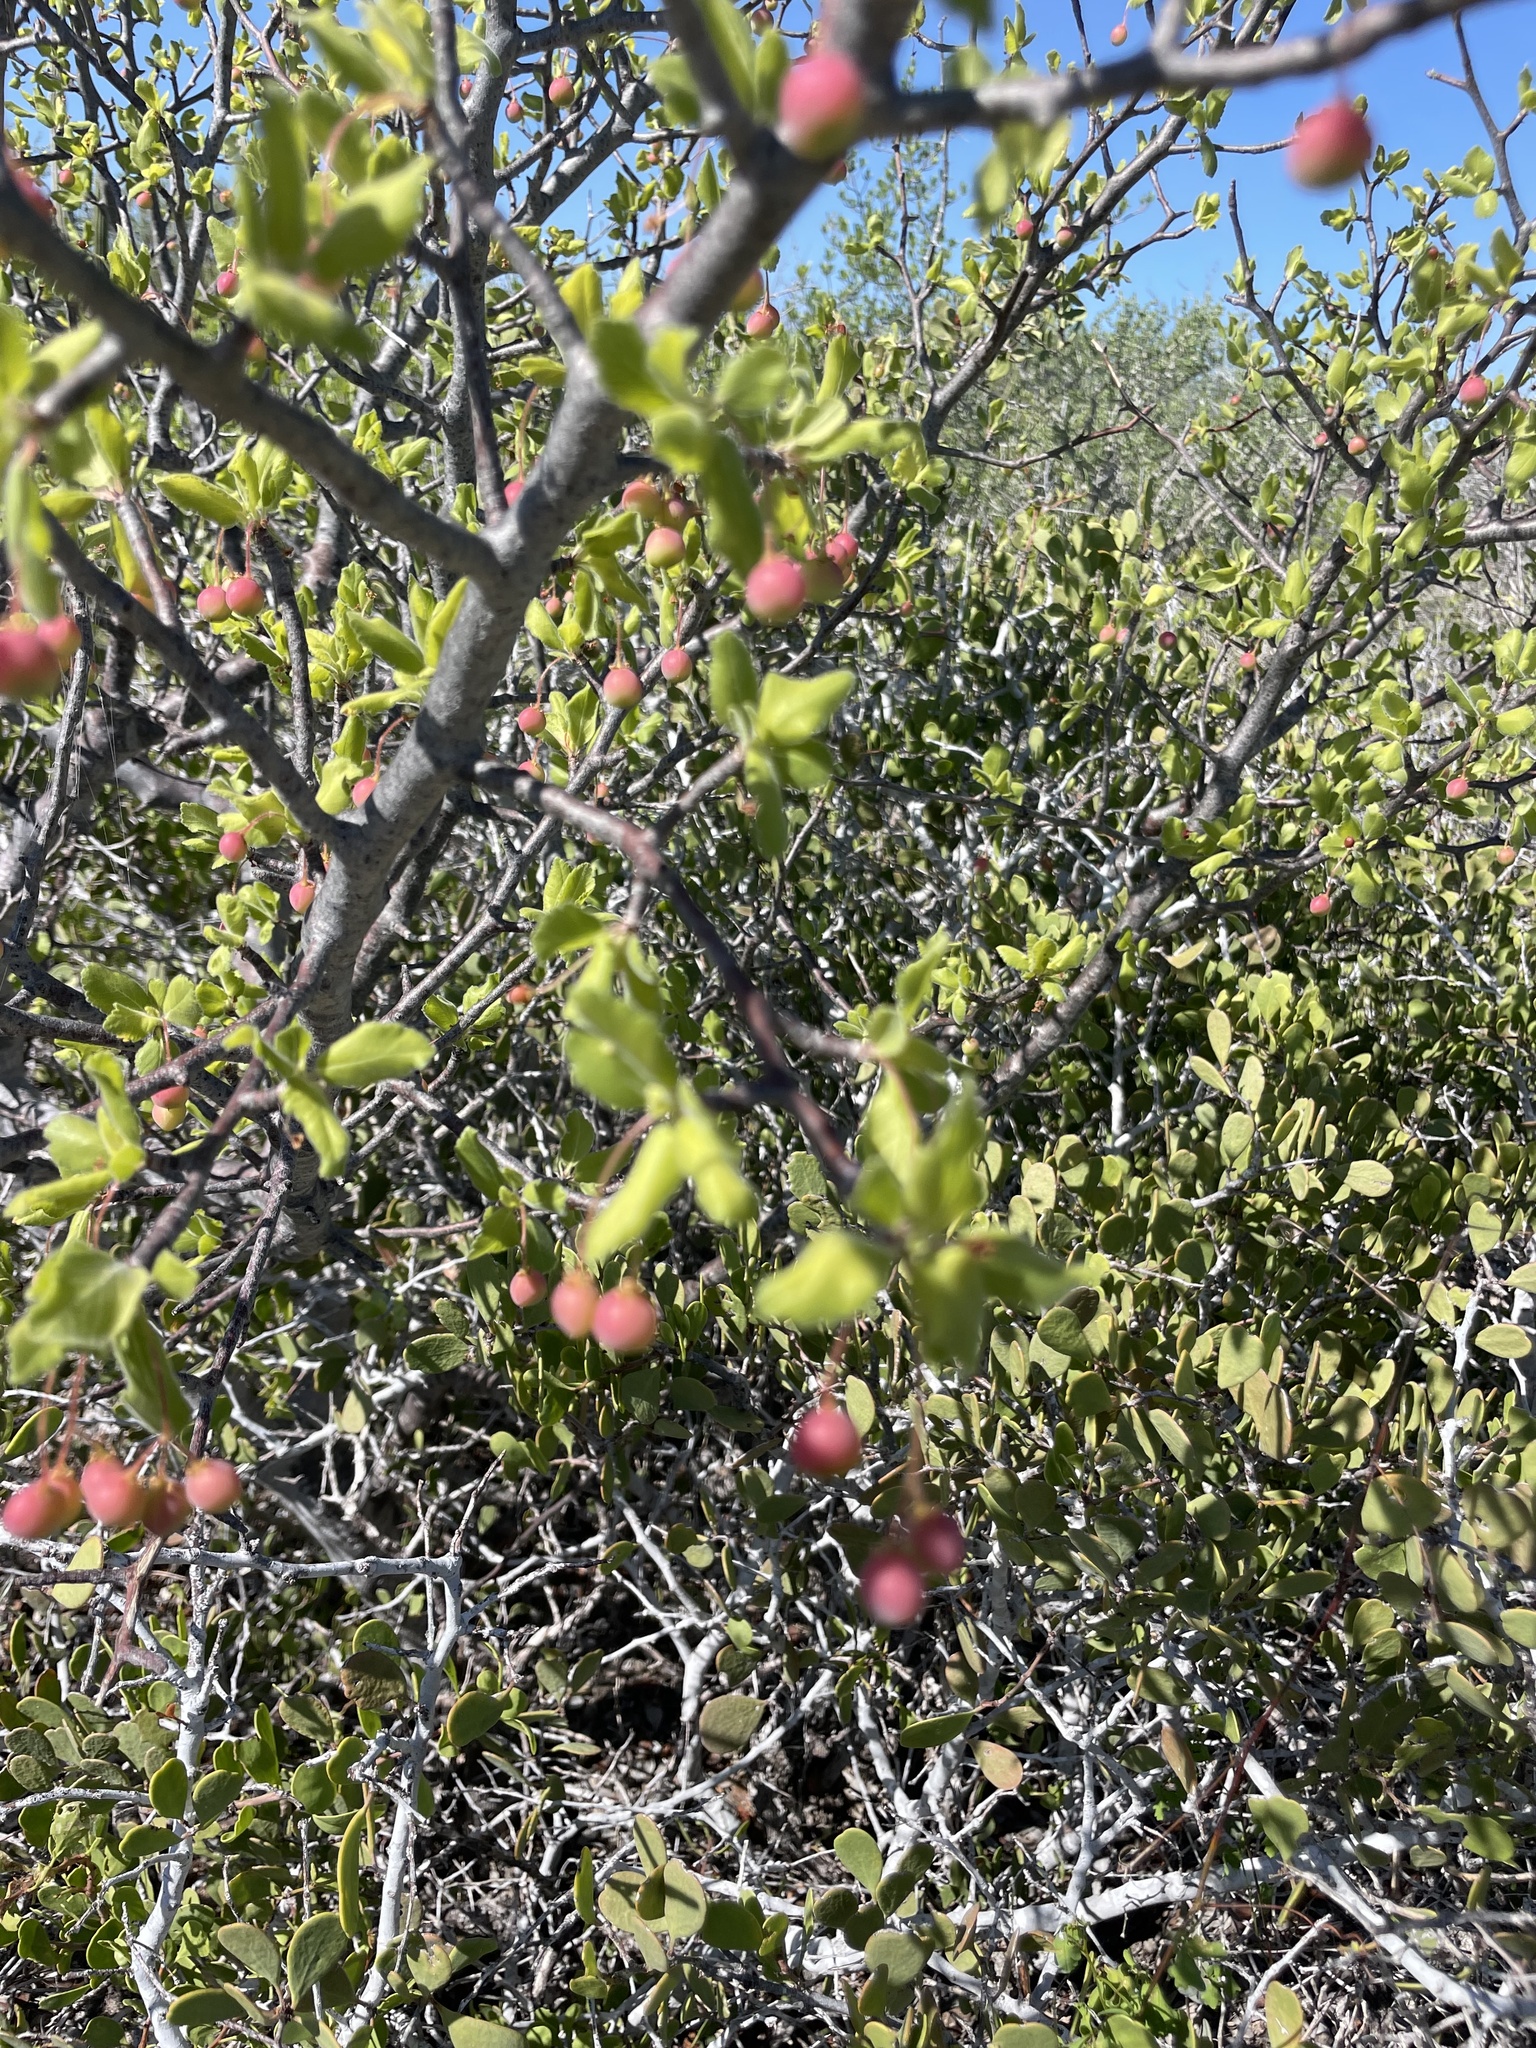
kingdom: Plantae
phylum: Tracheophyta
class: Magnoliopsida
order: Sapindales
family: Burseraceae
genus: Bursera
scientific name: Bursera epinnata
